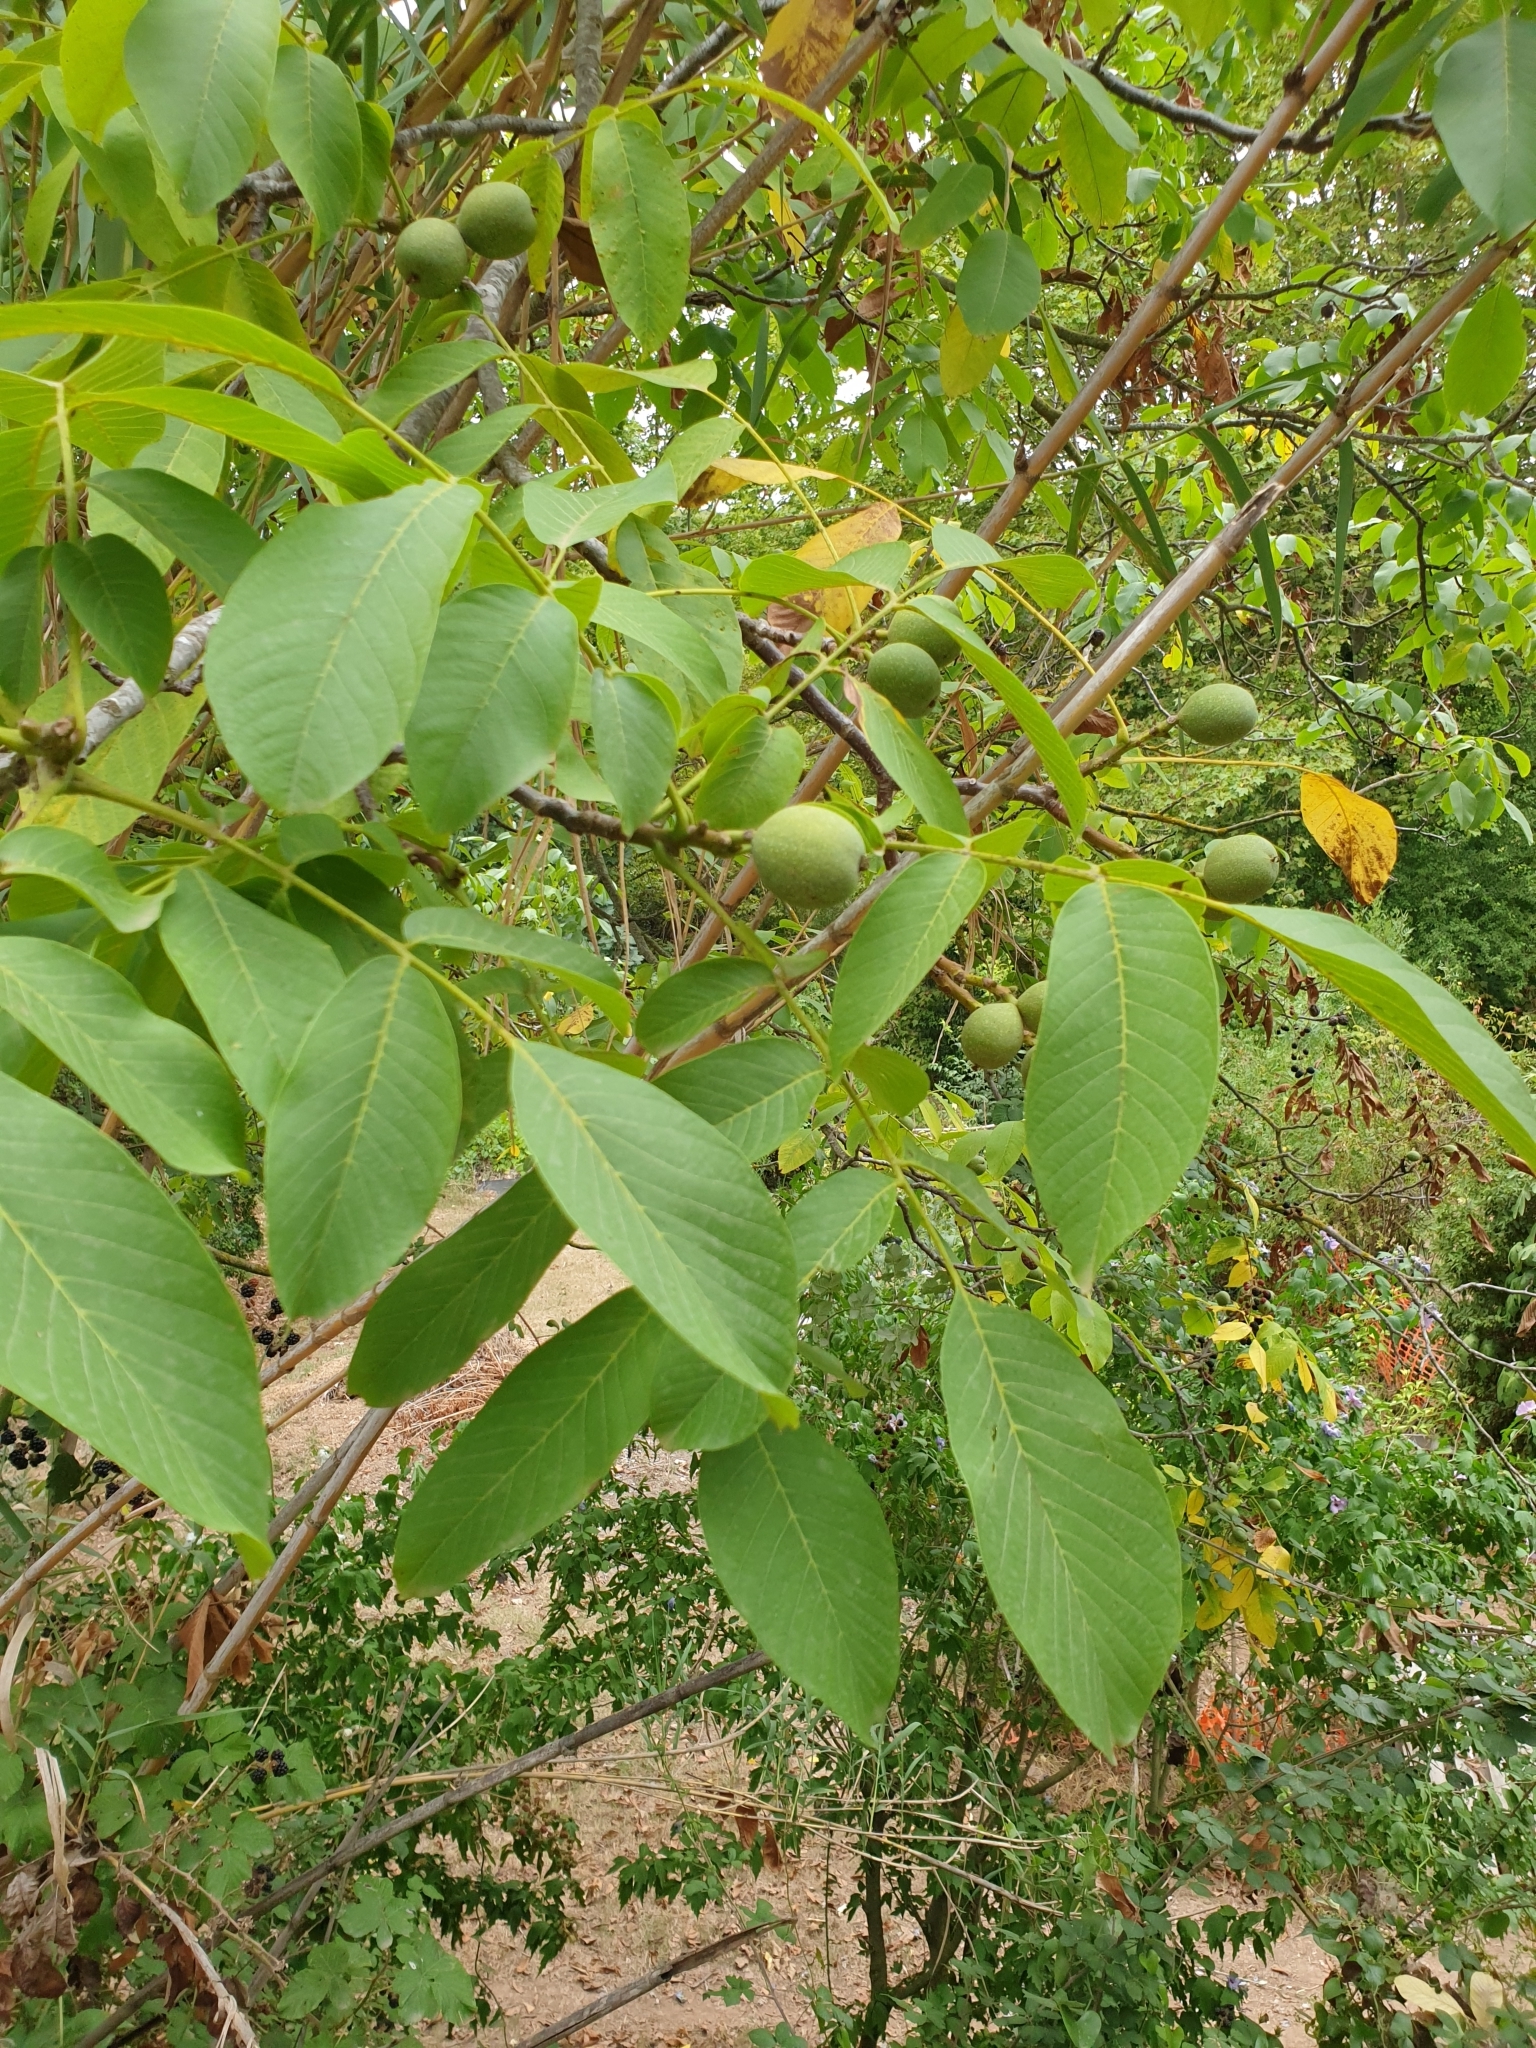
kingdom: Plantae
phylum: Tracheophyta
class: Magnoliopsida
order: Fagales
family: Juglandaceae
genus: Juglans
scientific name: Juglans regia
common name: Walnut
